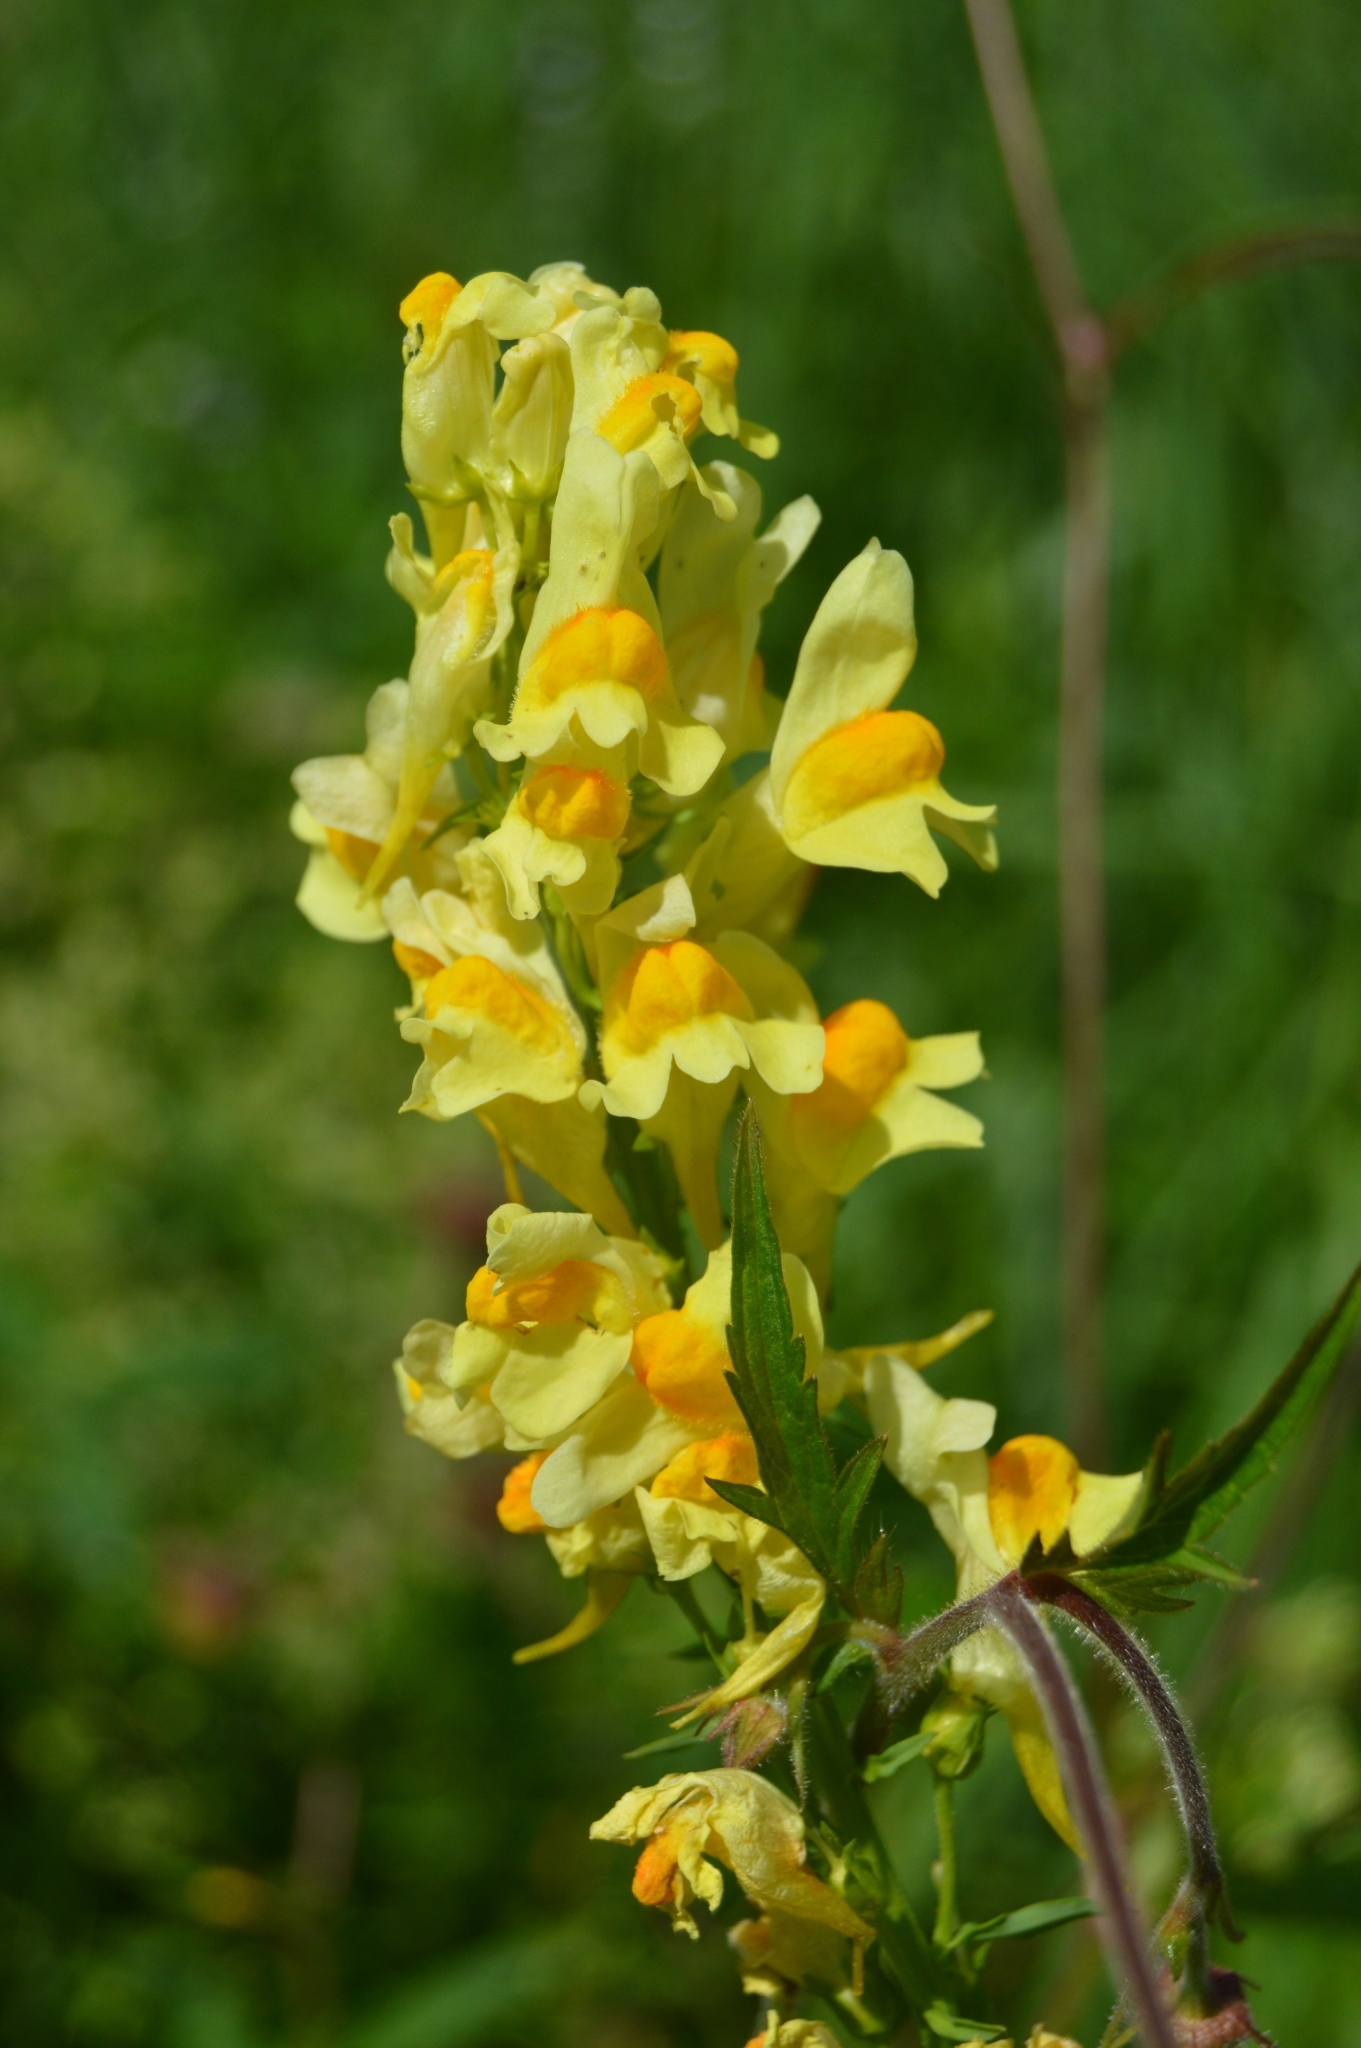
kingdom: Plantae
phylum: Tracheophyta
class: Magnoliopsida
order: Lamiales
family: Plantaginaceae
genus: Linaria
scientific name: Linaria vulgaris
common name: Butter and eggs
